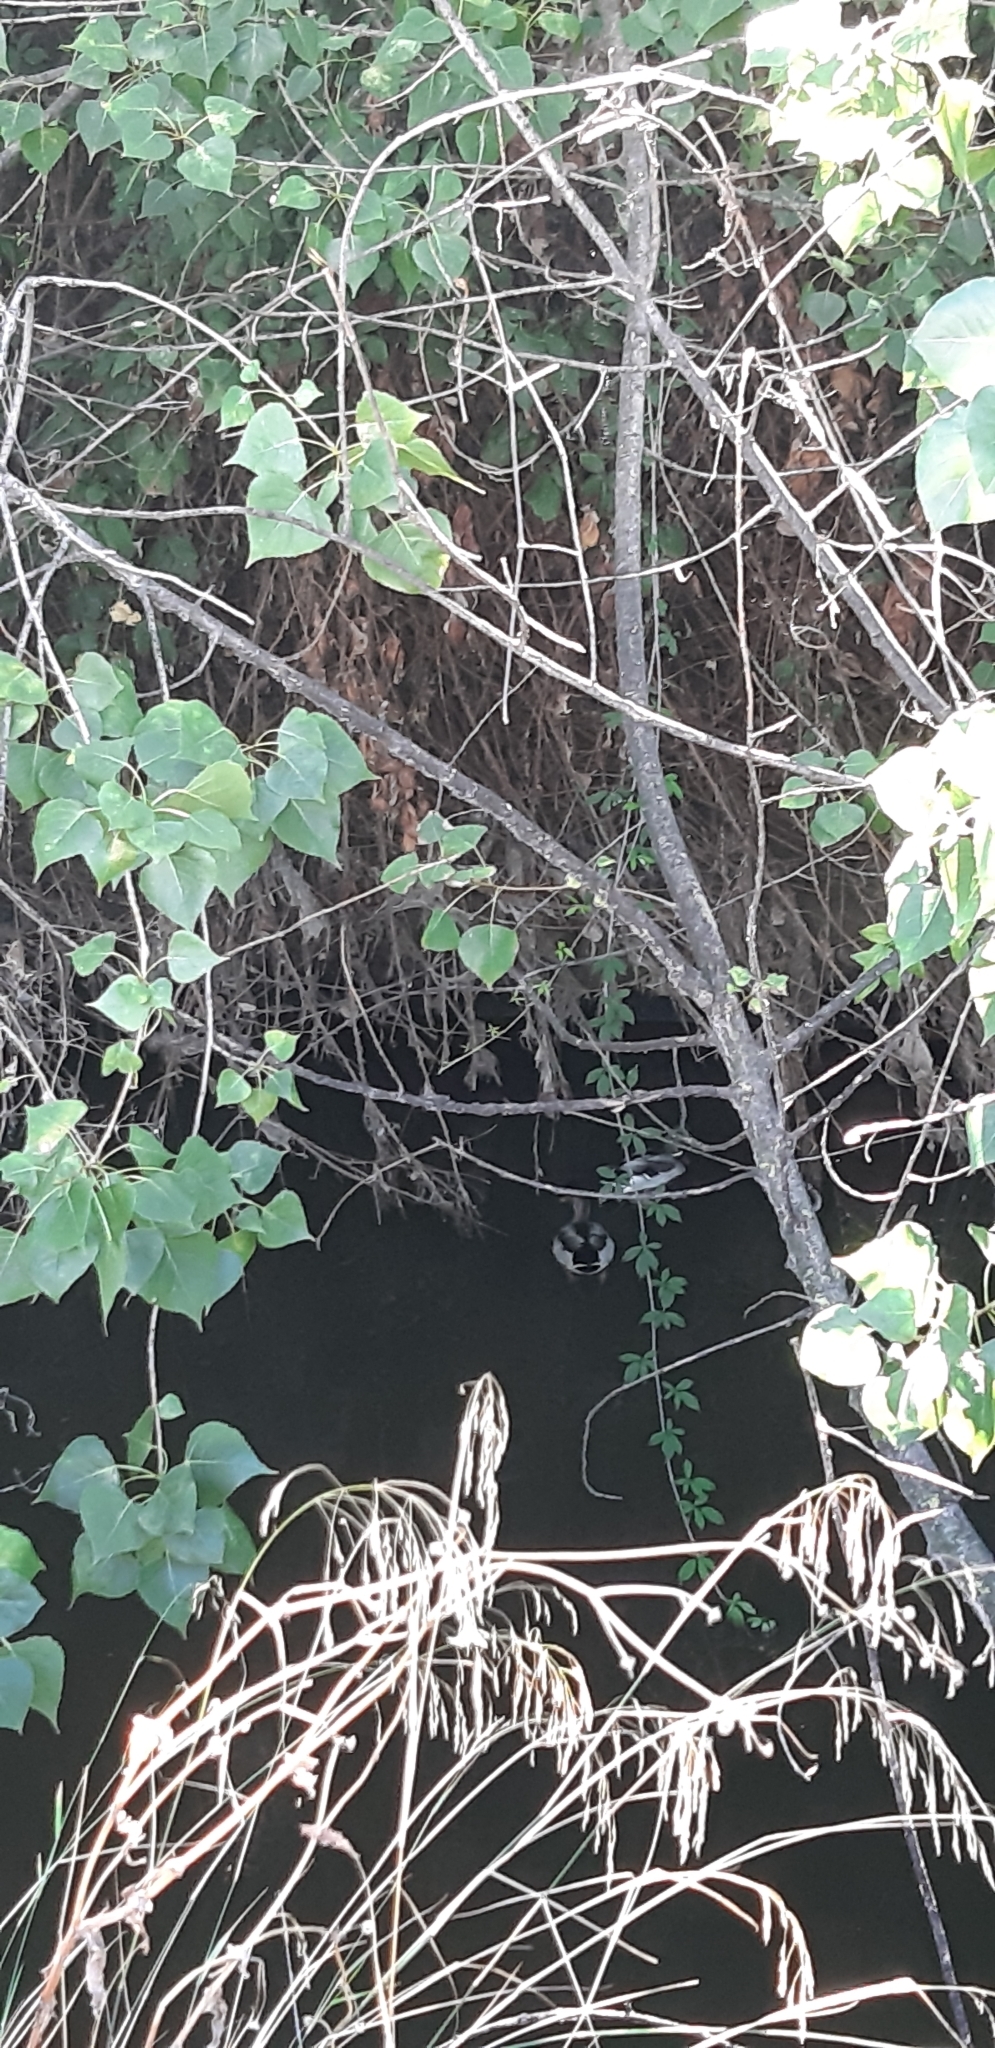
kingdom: Animalia
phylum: Chordata
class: Aves
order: Anseriformes
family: Anatidae
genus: Anas
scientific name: Anas platyrhynchos
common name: Mallard
